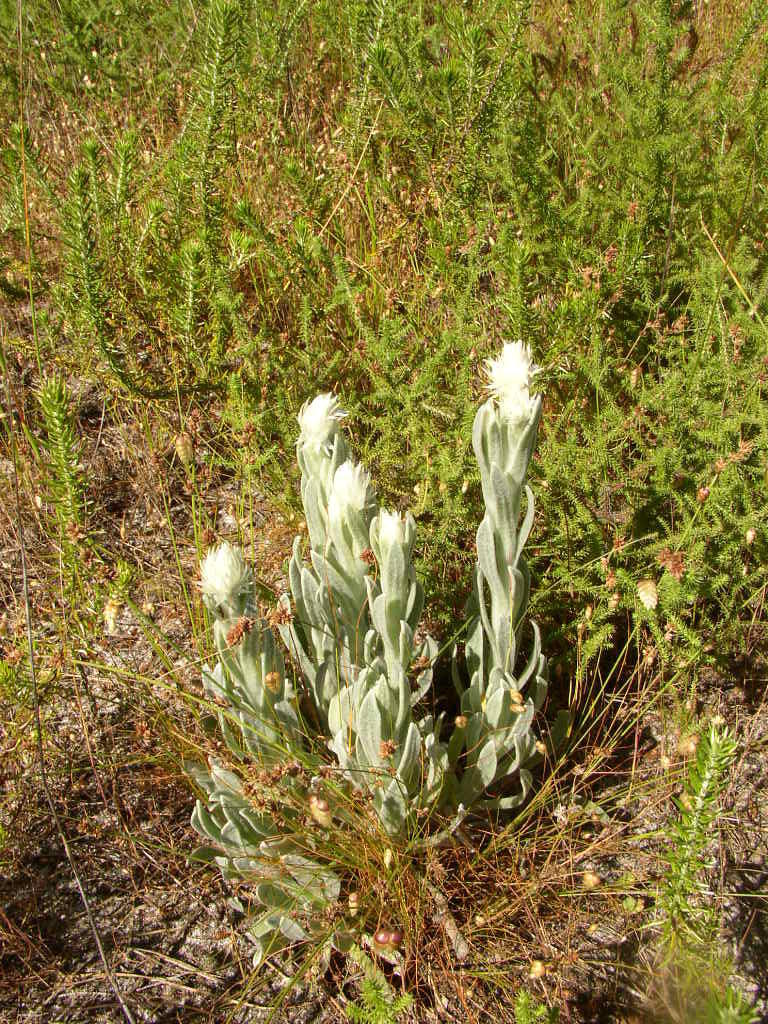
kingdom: Plantae
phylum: Tracheophyta
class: Magnoliopsida
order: Asterales
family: Asteraceae
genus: Syncarpha
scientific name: Syncarpha vestita
